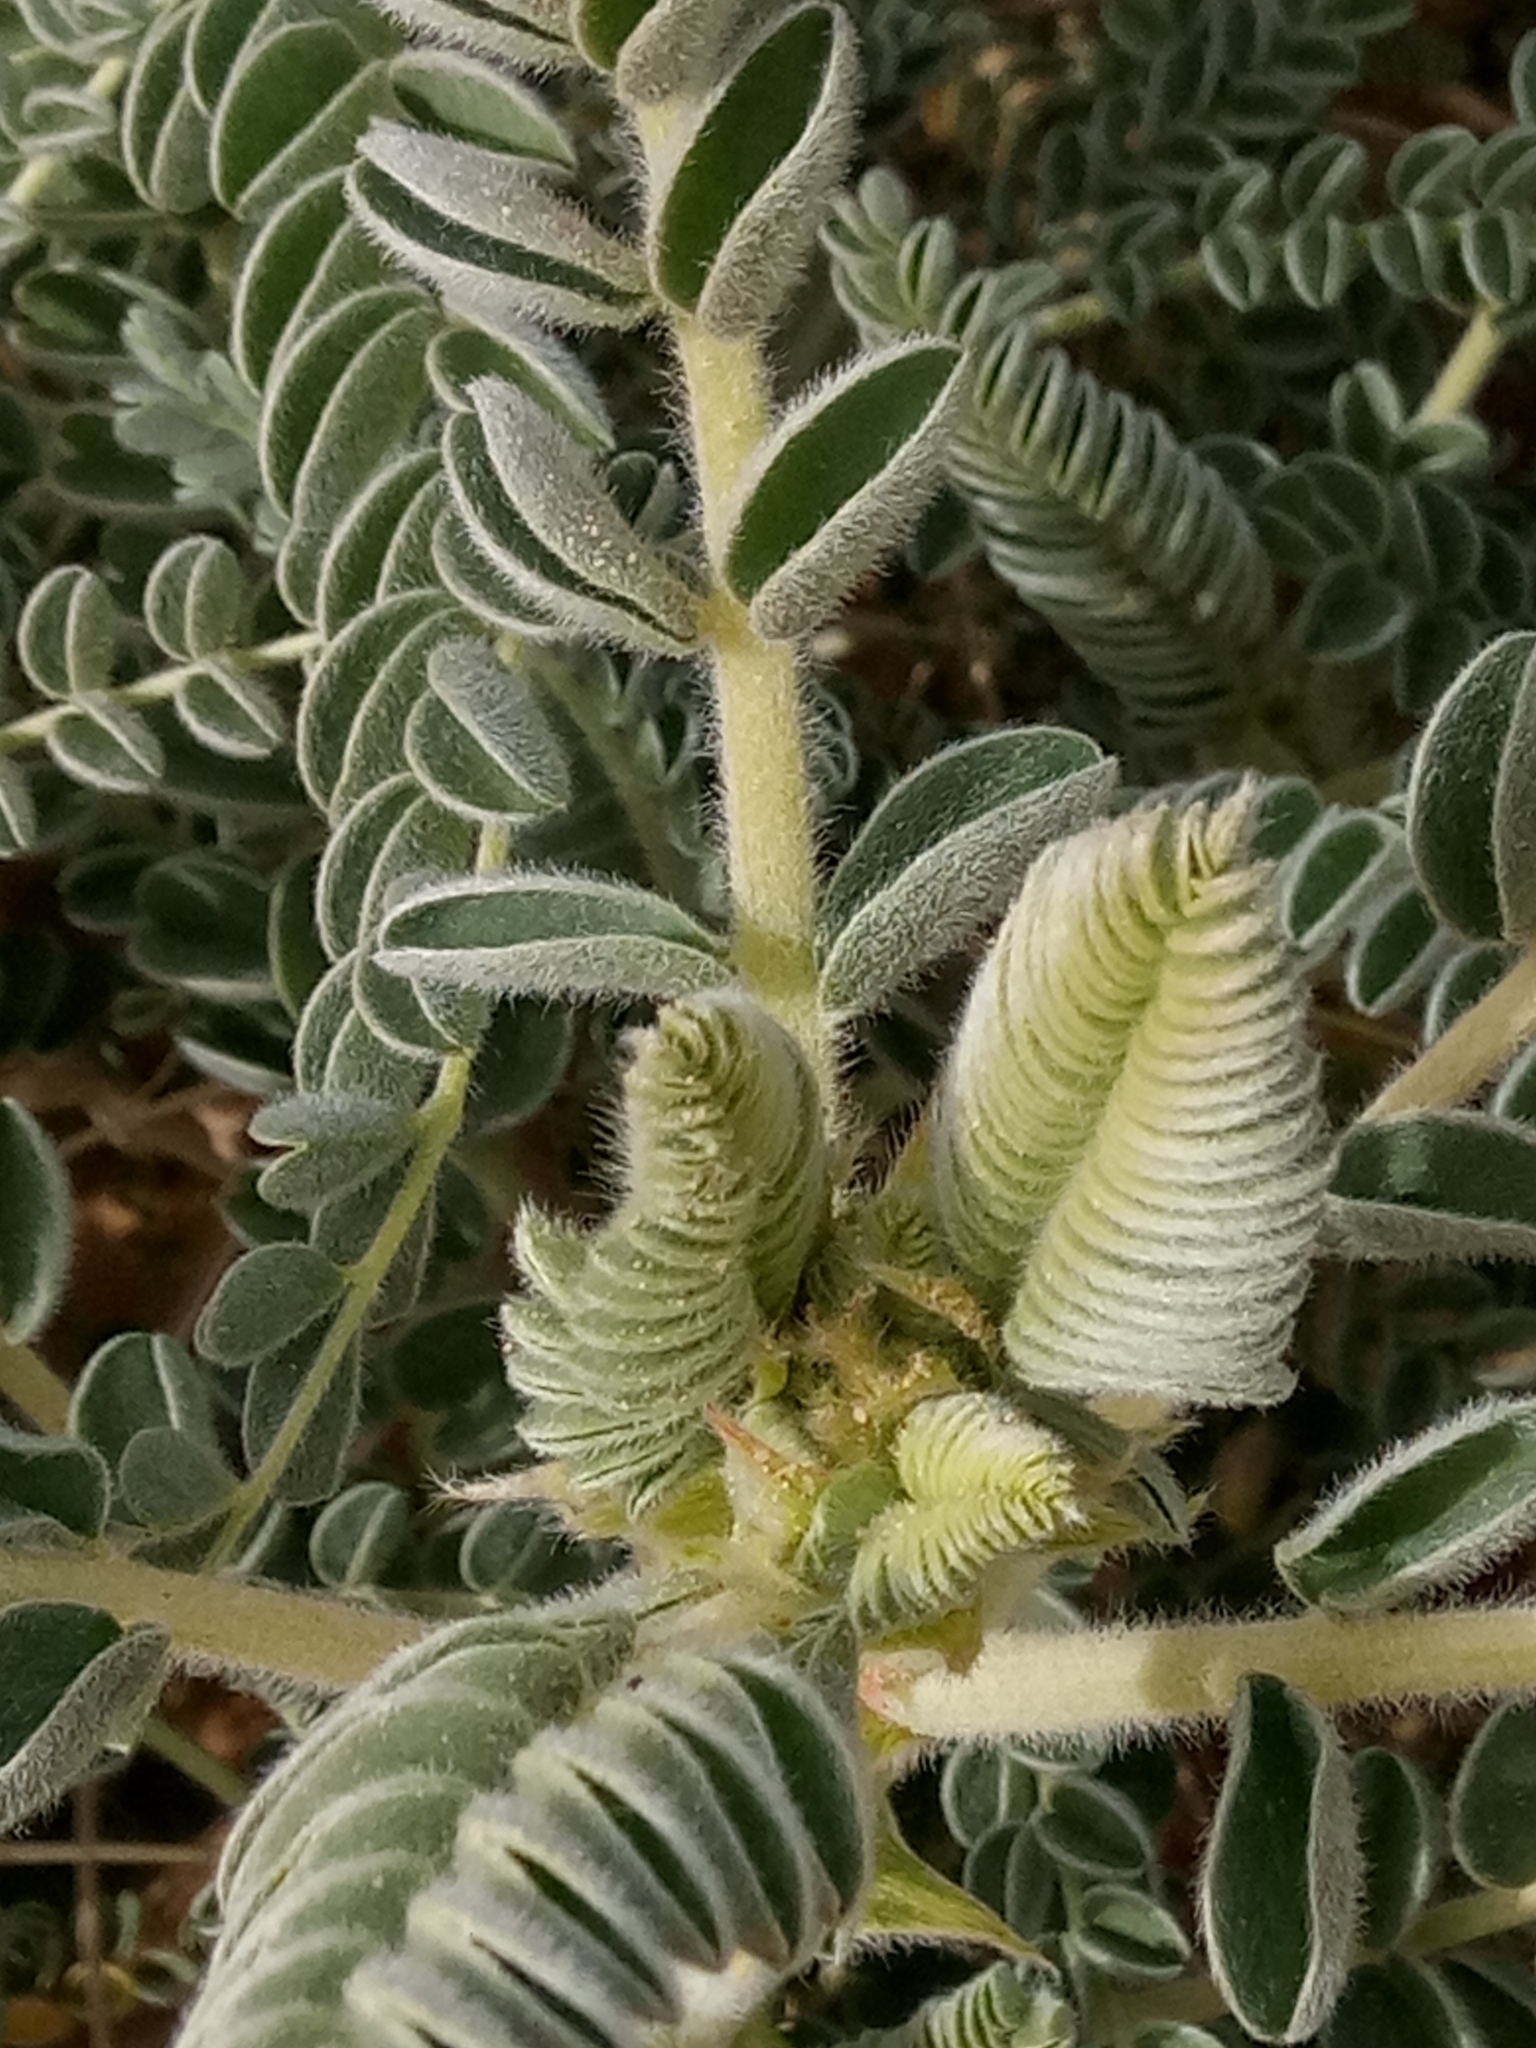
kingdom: Plantae
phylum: Tracheophyta
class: Magnoliopsida
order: Fabales
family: Fabaceae
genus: Astragalus
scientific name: Astragalus gombo
